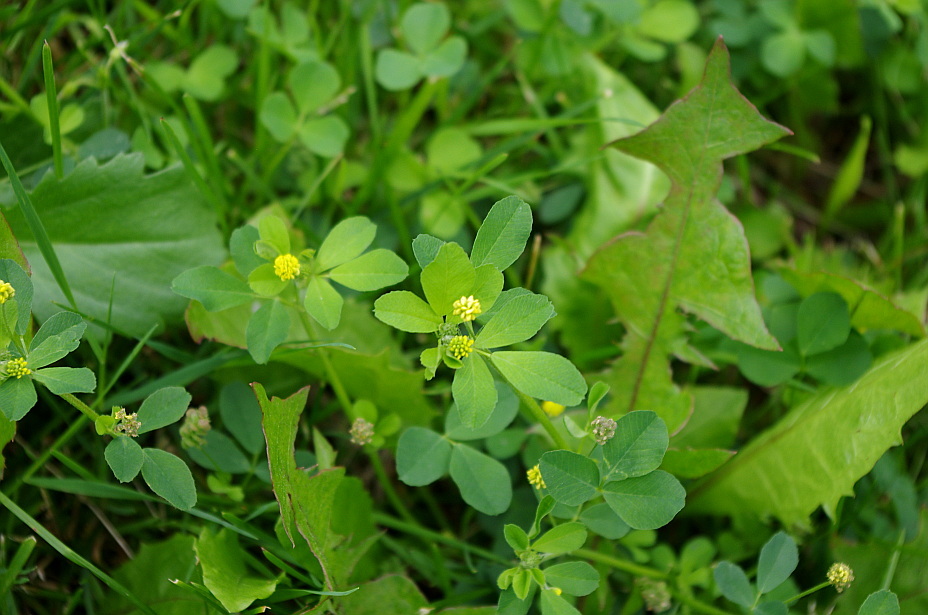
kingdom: Plantae
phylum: Tracheophyta
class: Magnoliopsida
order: Fabales
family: Fabaceae
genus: Medicago
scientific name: Medicago lupulina
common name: Black medick
